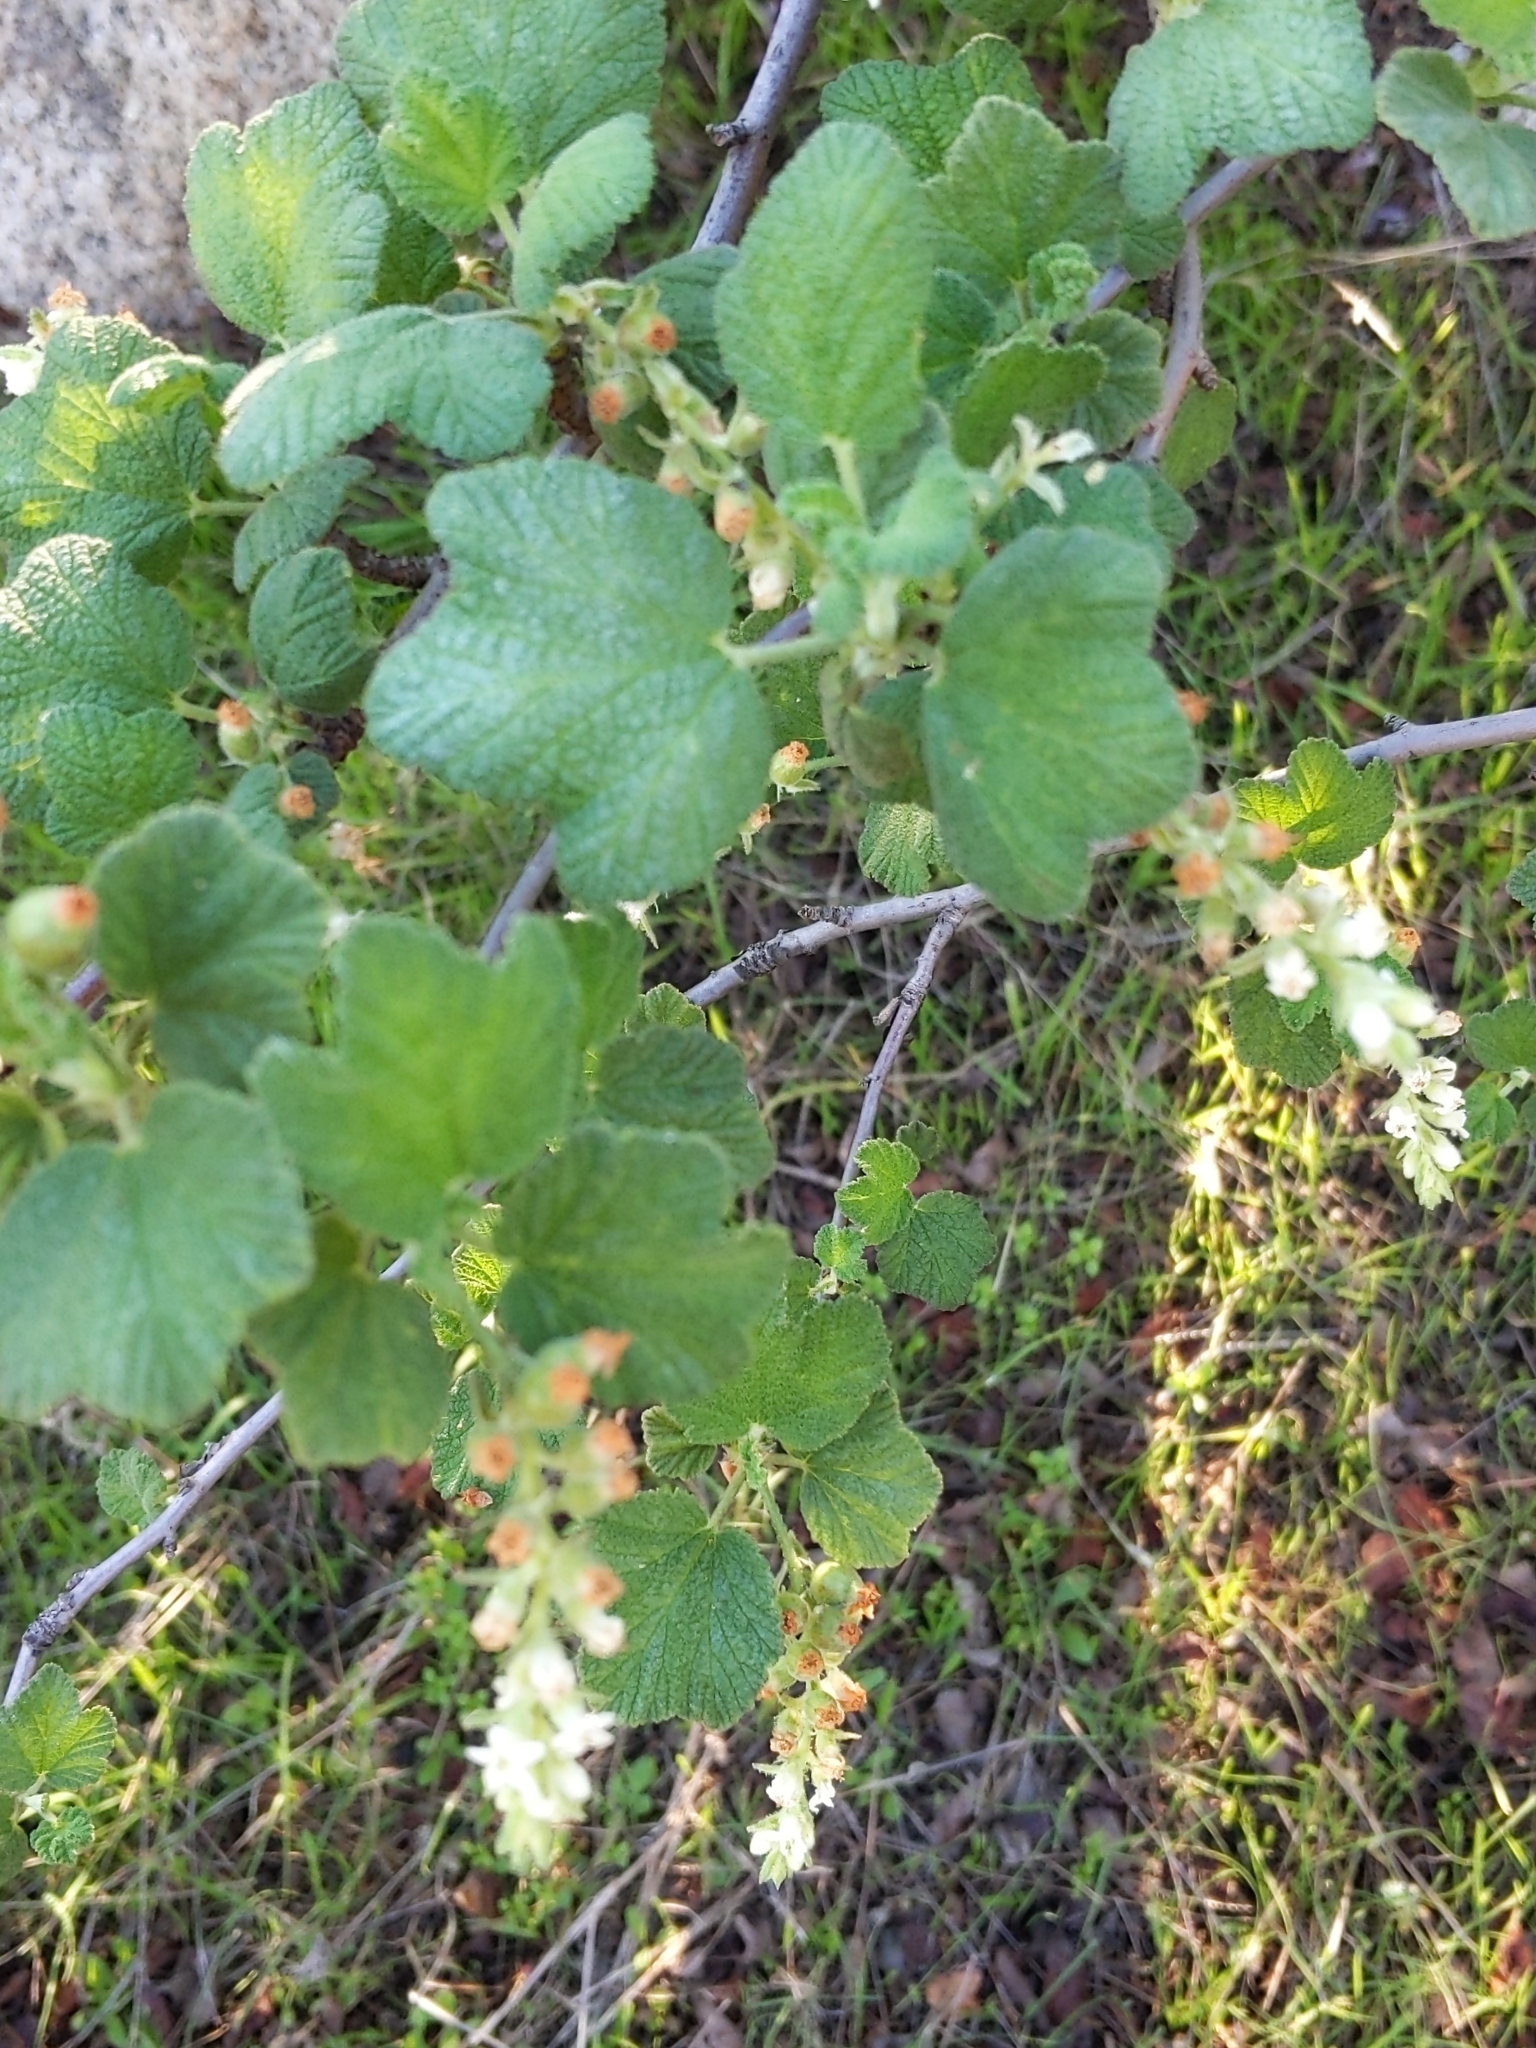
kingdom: Plantae
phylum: Tracheophyta
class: Magnoliopsida
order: Saxifragales
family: Grossulariaceae
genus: Ribes
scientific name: Ribes indecorum
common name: White-flower currant
